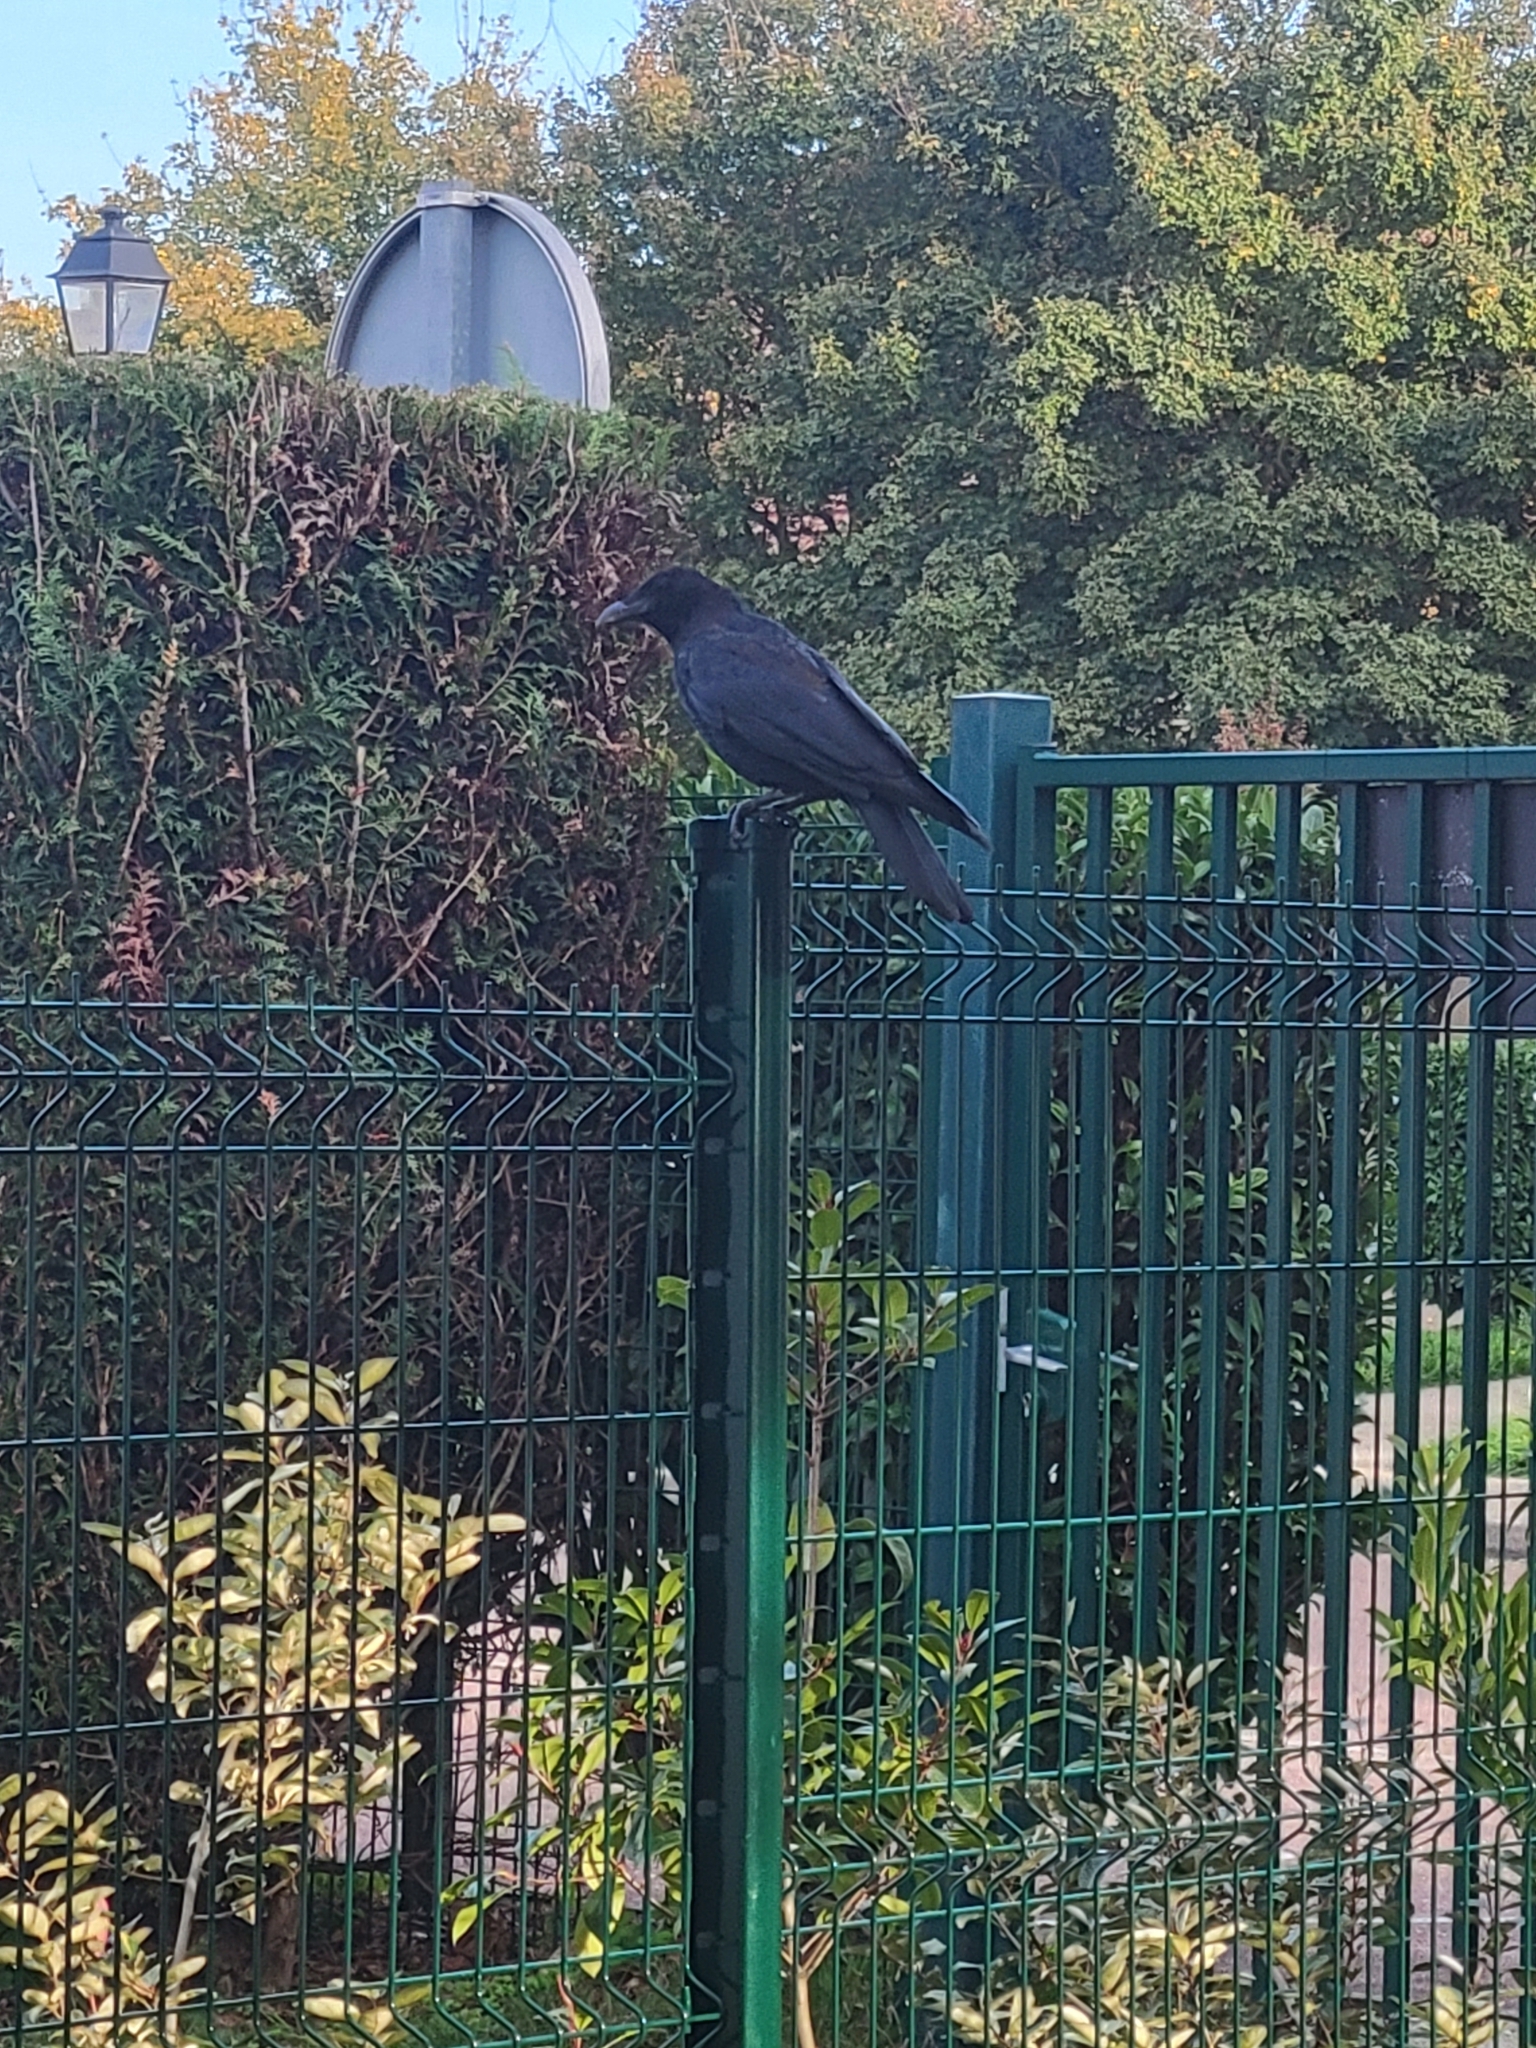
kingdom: Animalia
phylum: Chordata
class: Aves
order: Passeriformes
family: Corvidae
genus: Corvus
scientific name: Corvus corone
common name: Carrion crow
